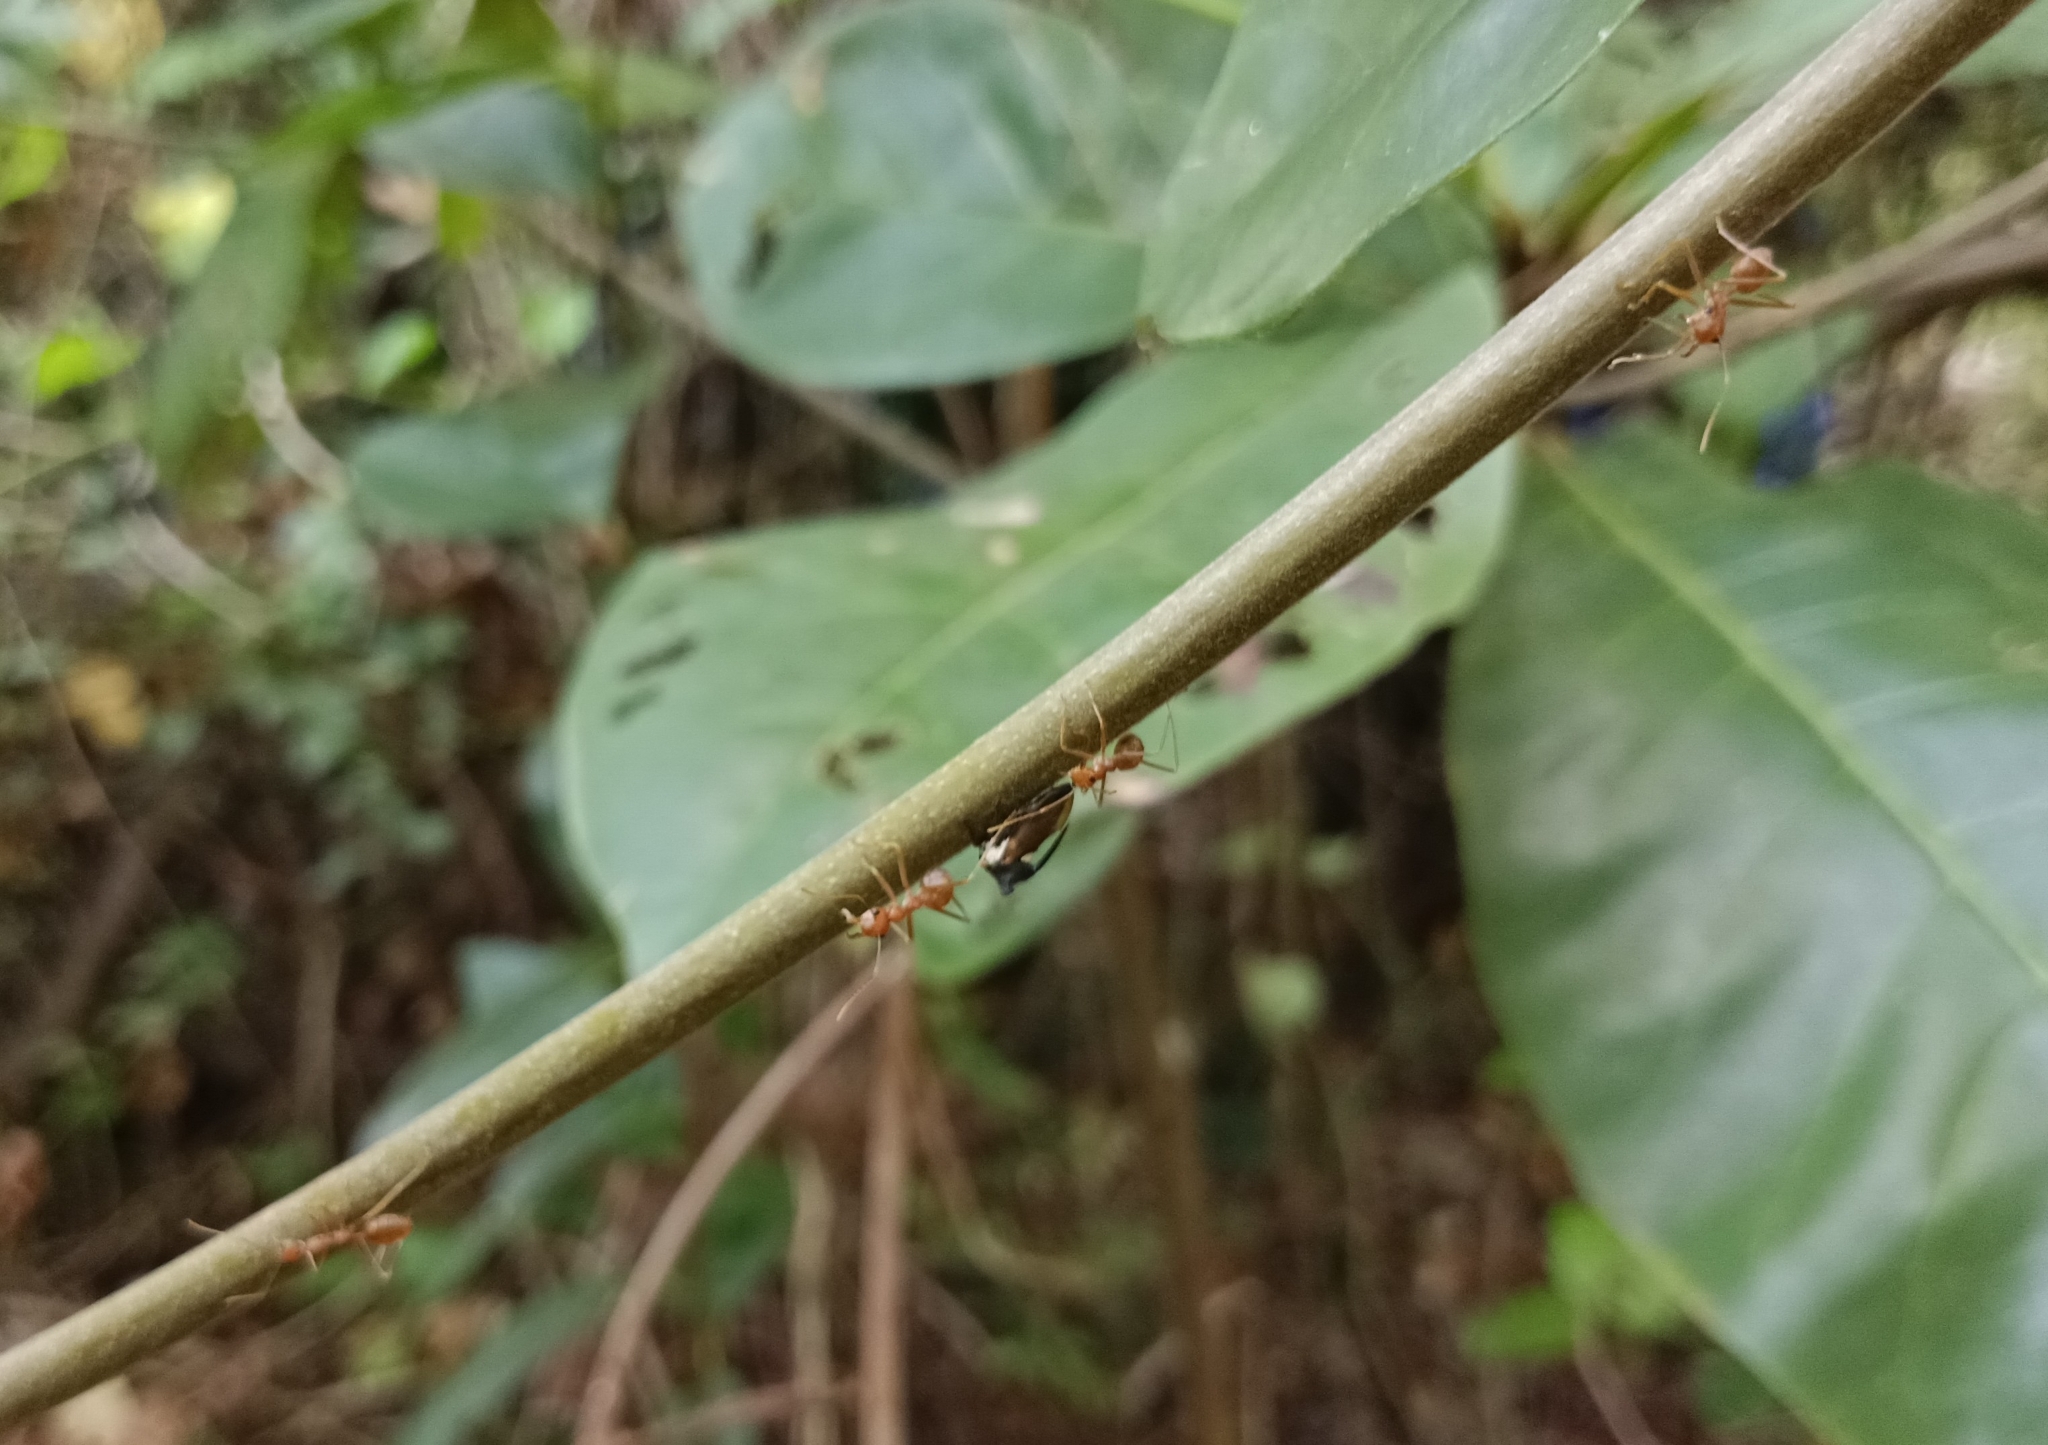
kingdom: Animalia
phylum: Arthropoda
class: Insecta
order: Hymenoptera
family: Formicidae
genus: Oecophylla
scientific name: Oecophylla smaragdina
